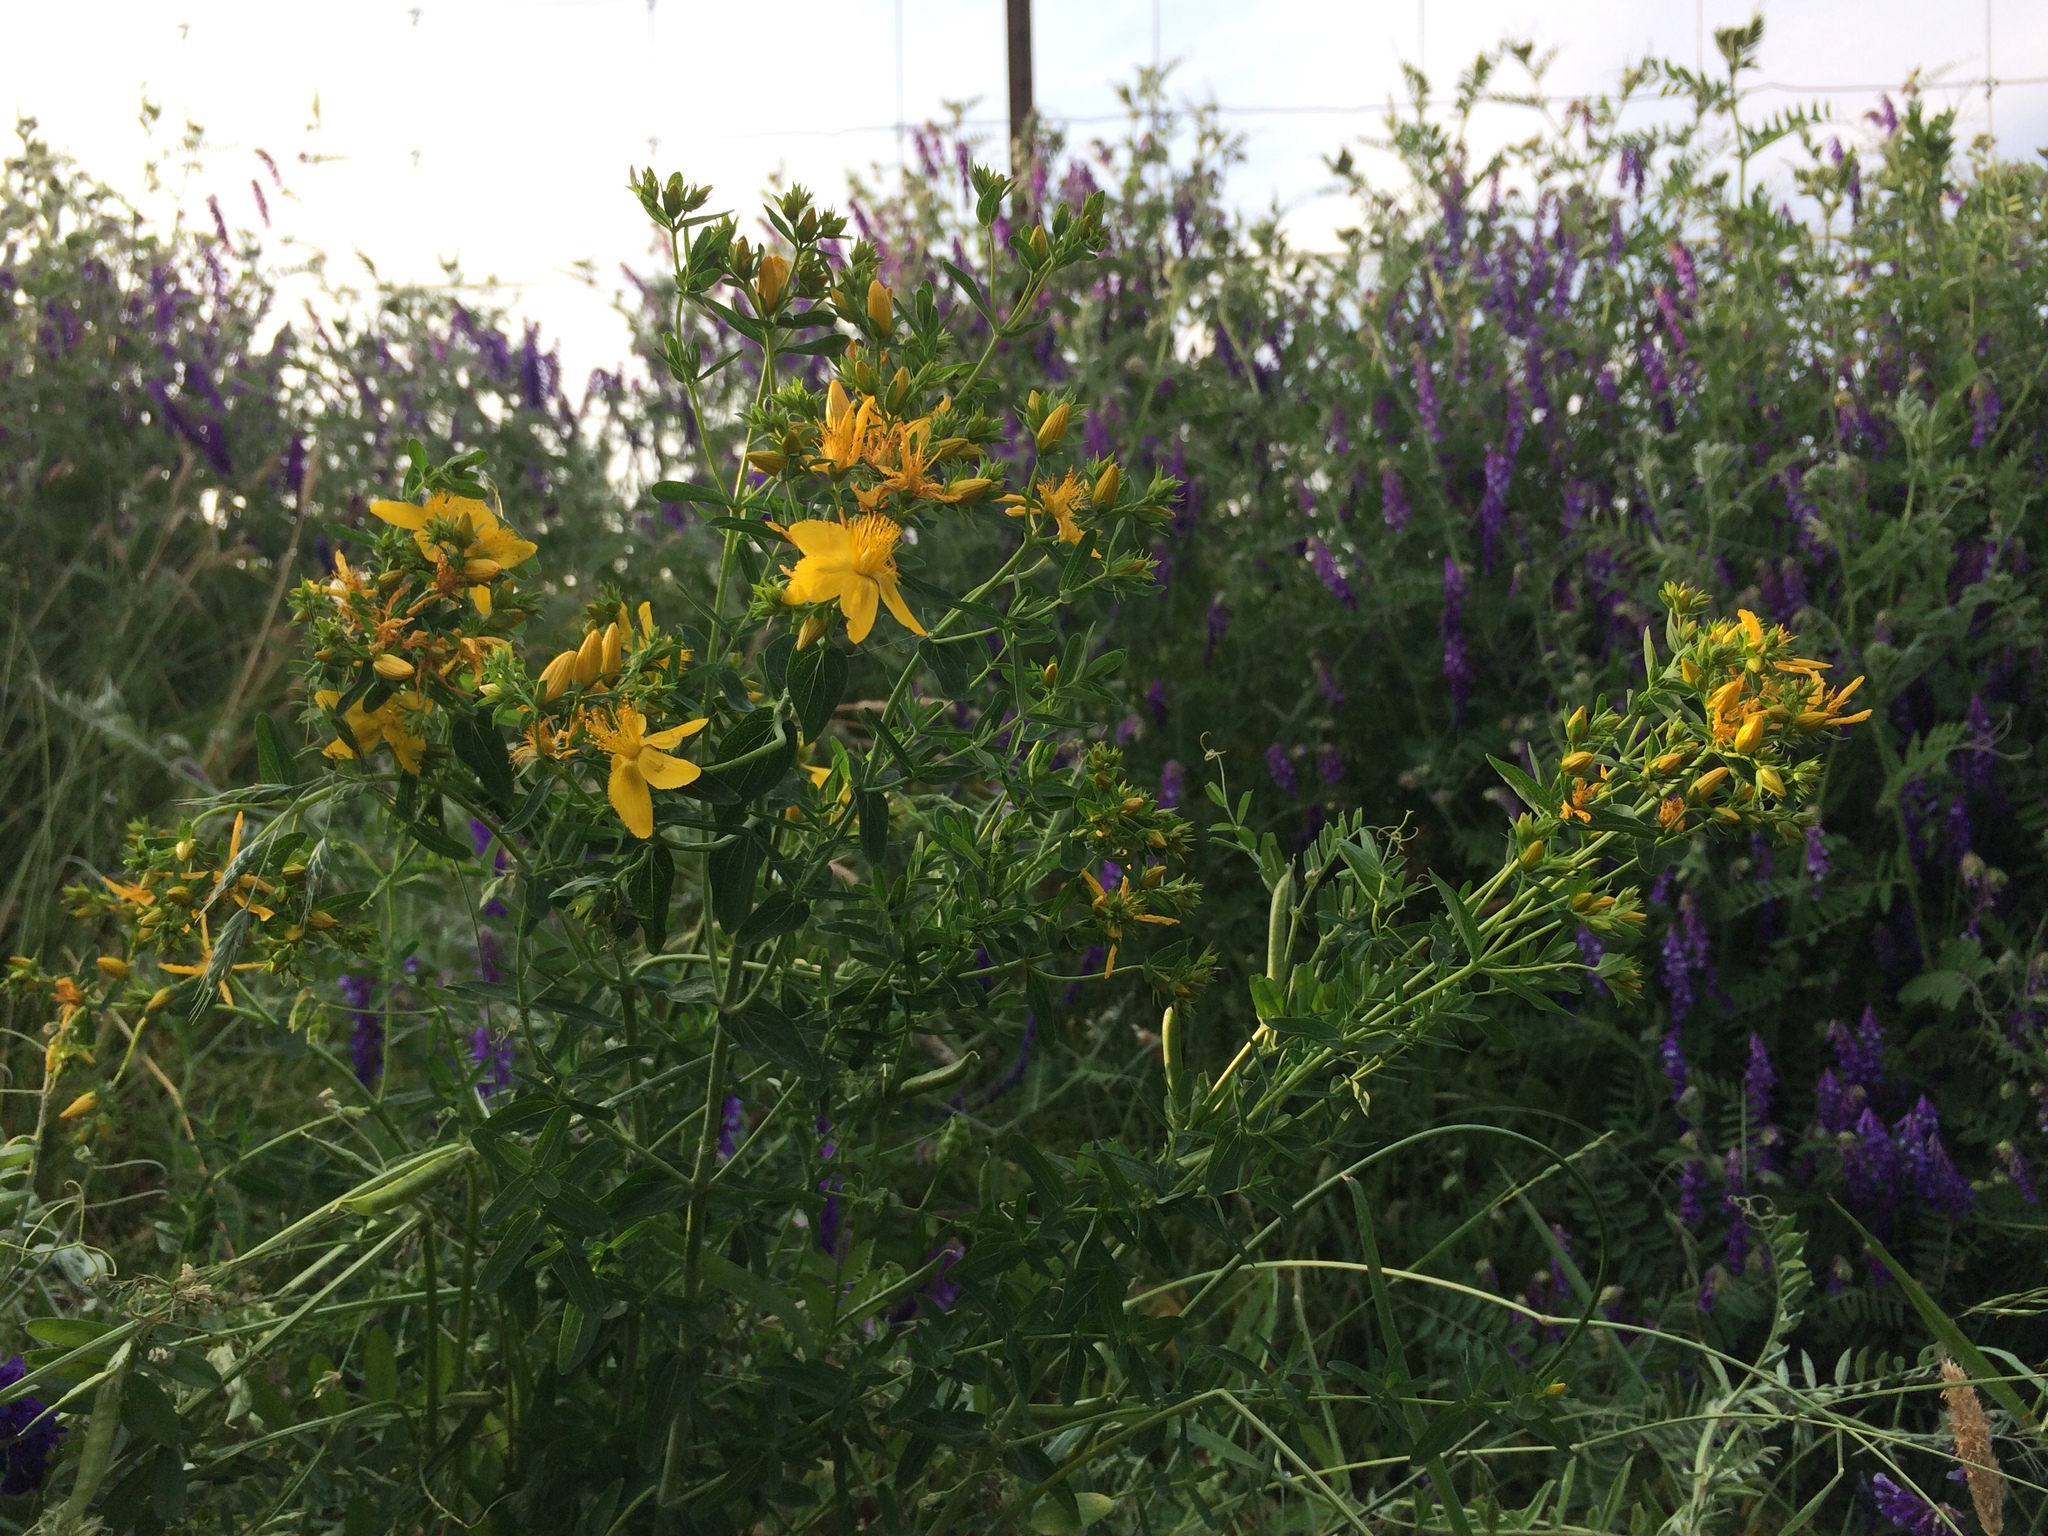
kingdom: Plantae
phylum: Tracheophyta
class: Magnoliopsida
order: Malpighiales
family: Hypericaceae
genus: Hypericum
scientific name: Hypericum perforatum
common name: Common st. johnswort
